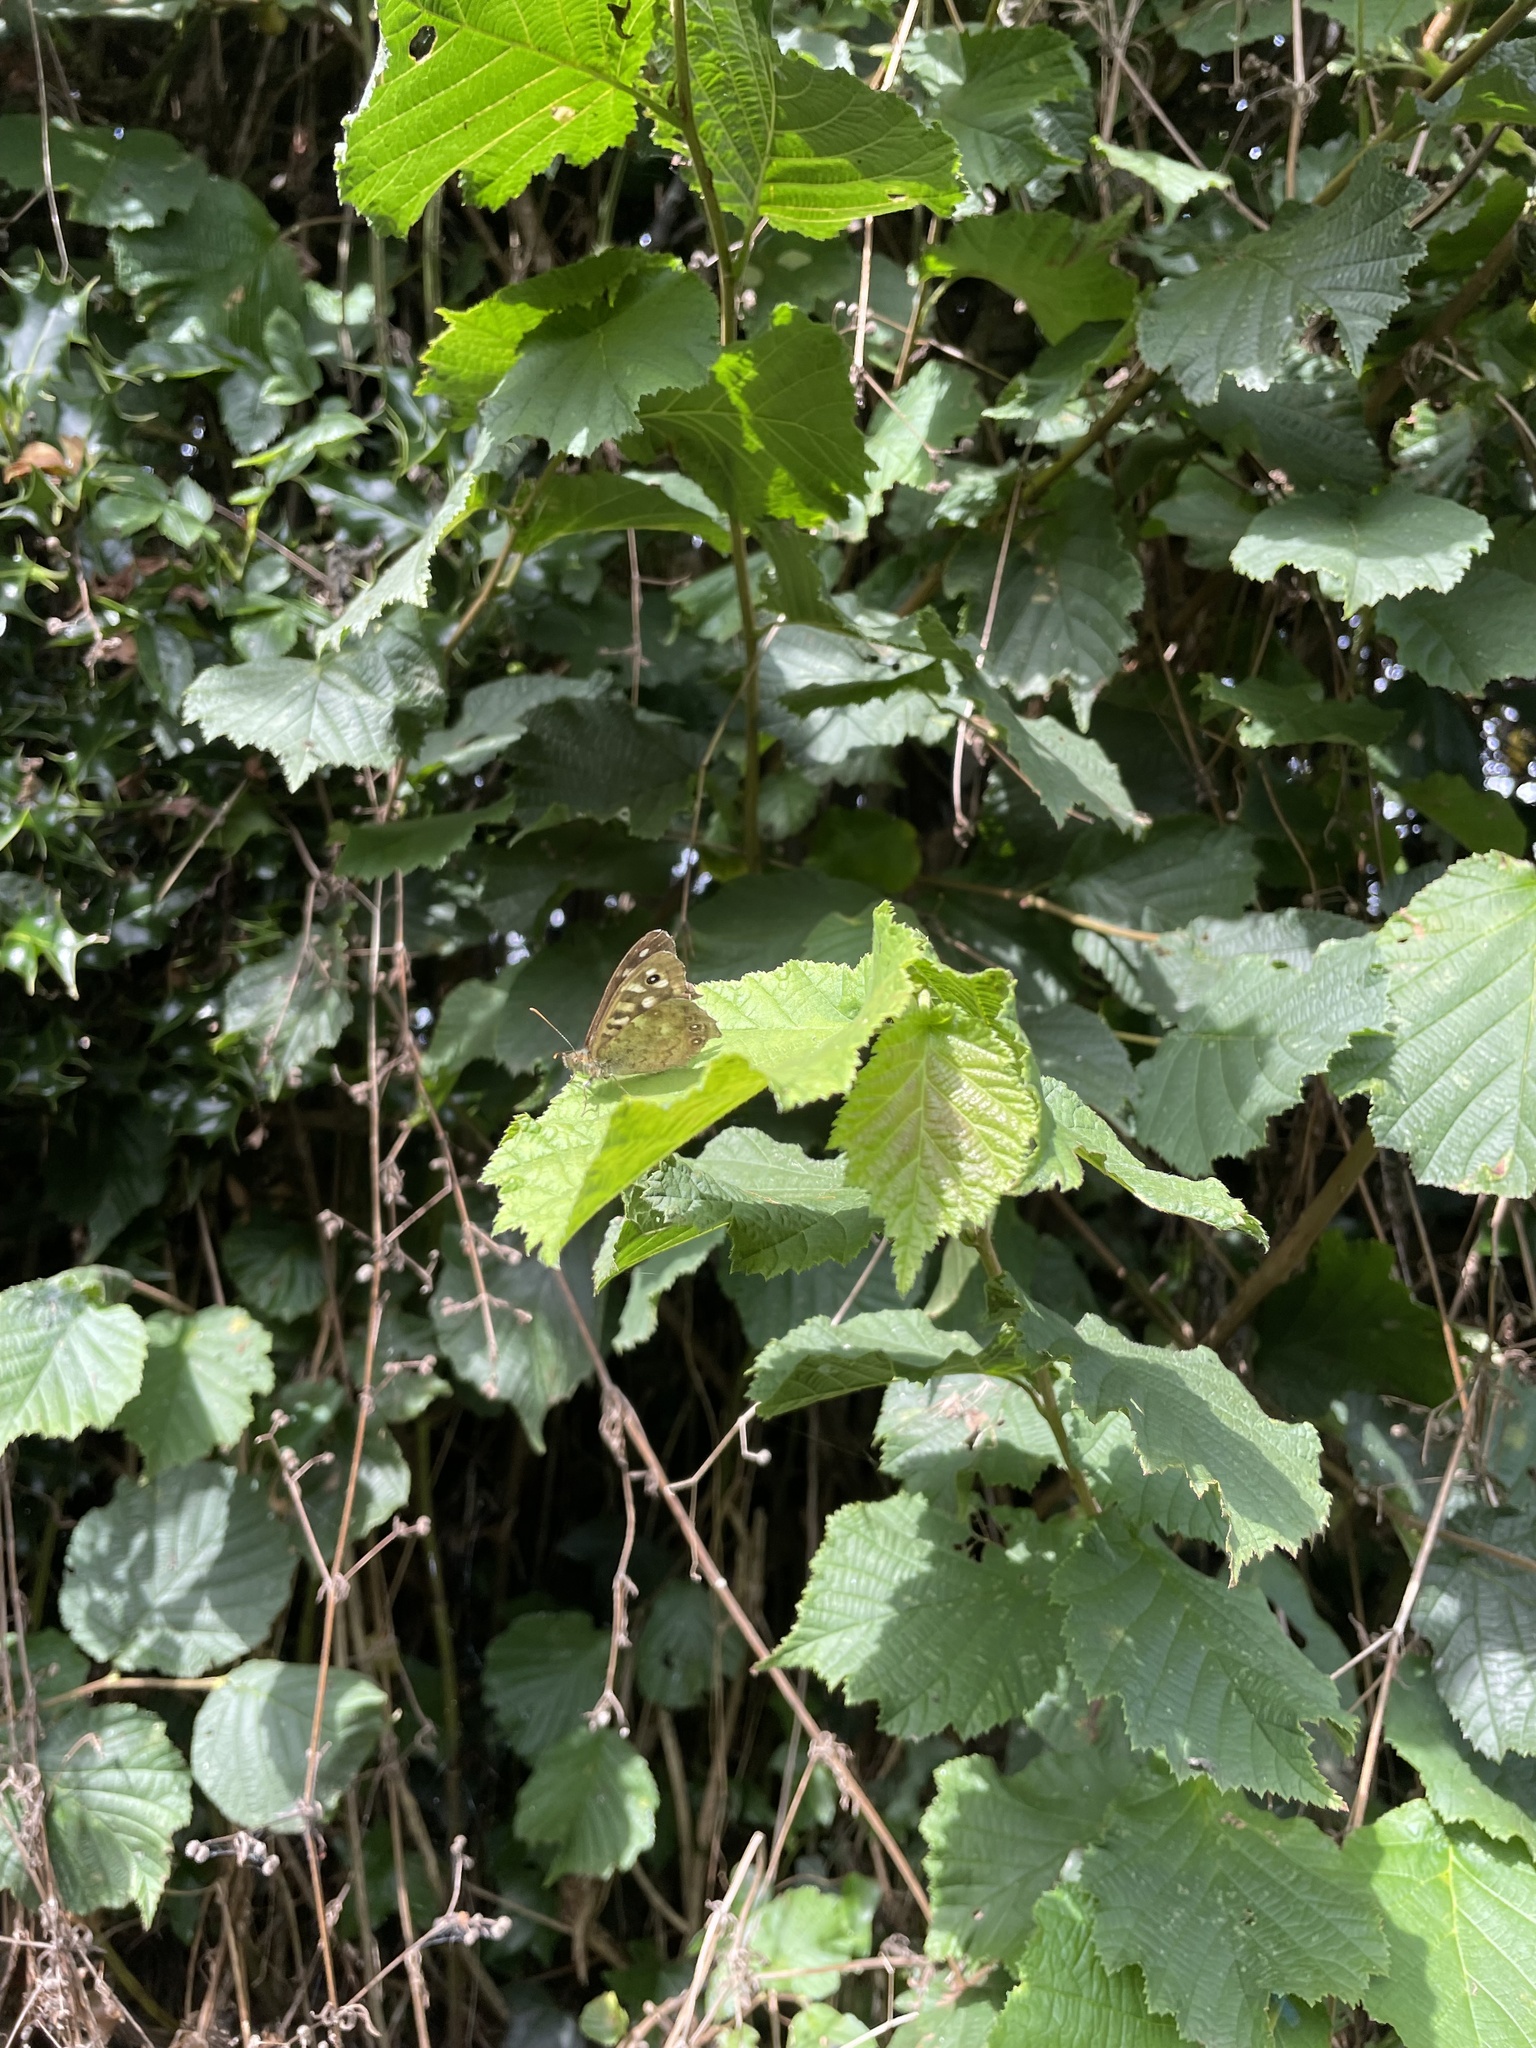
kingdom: Animalia
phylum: Arthropoda
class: Insecta
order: Lepidoptera
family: Nymphalidae
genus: Pararge
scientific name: Pararge aegeria
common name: Speckled wood
